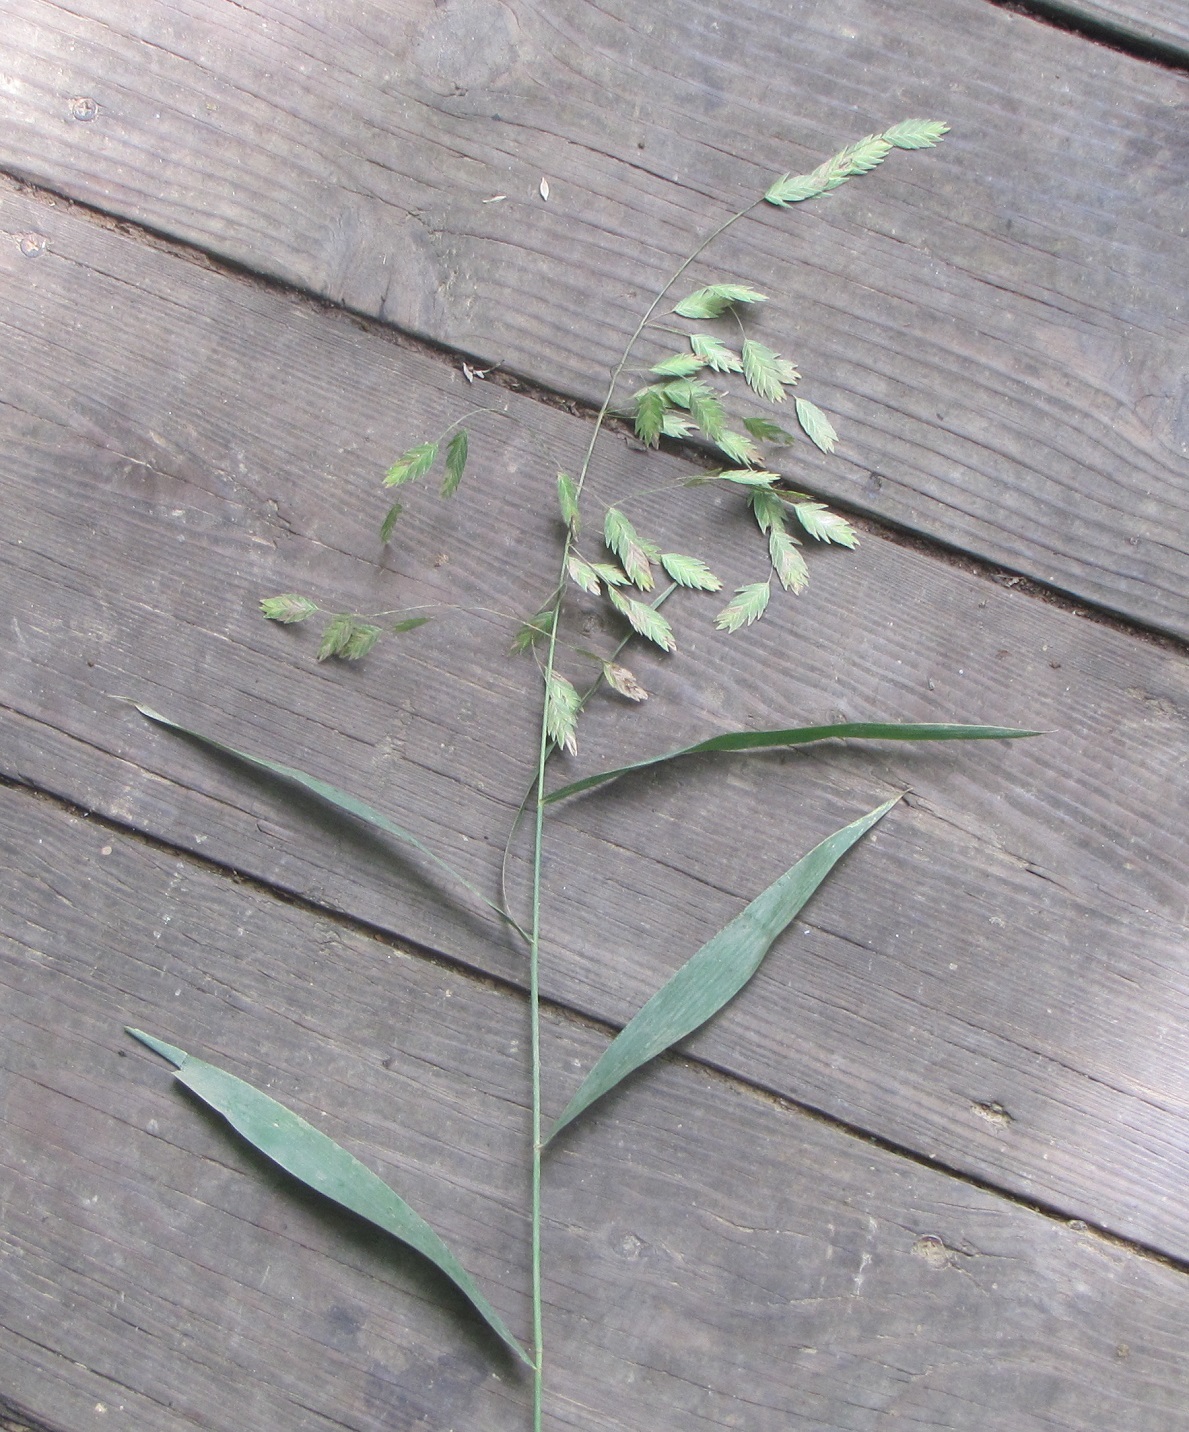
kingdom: Plantae
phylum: Tracheophyta
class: Liliopsida
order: Poales
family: Poaceae
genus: Chasmanthium
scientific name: Chasmanthium latifolium
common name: Broad-leaved chasmanthium
